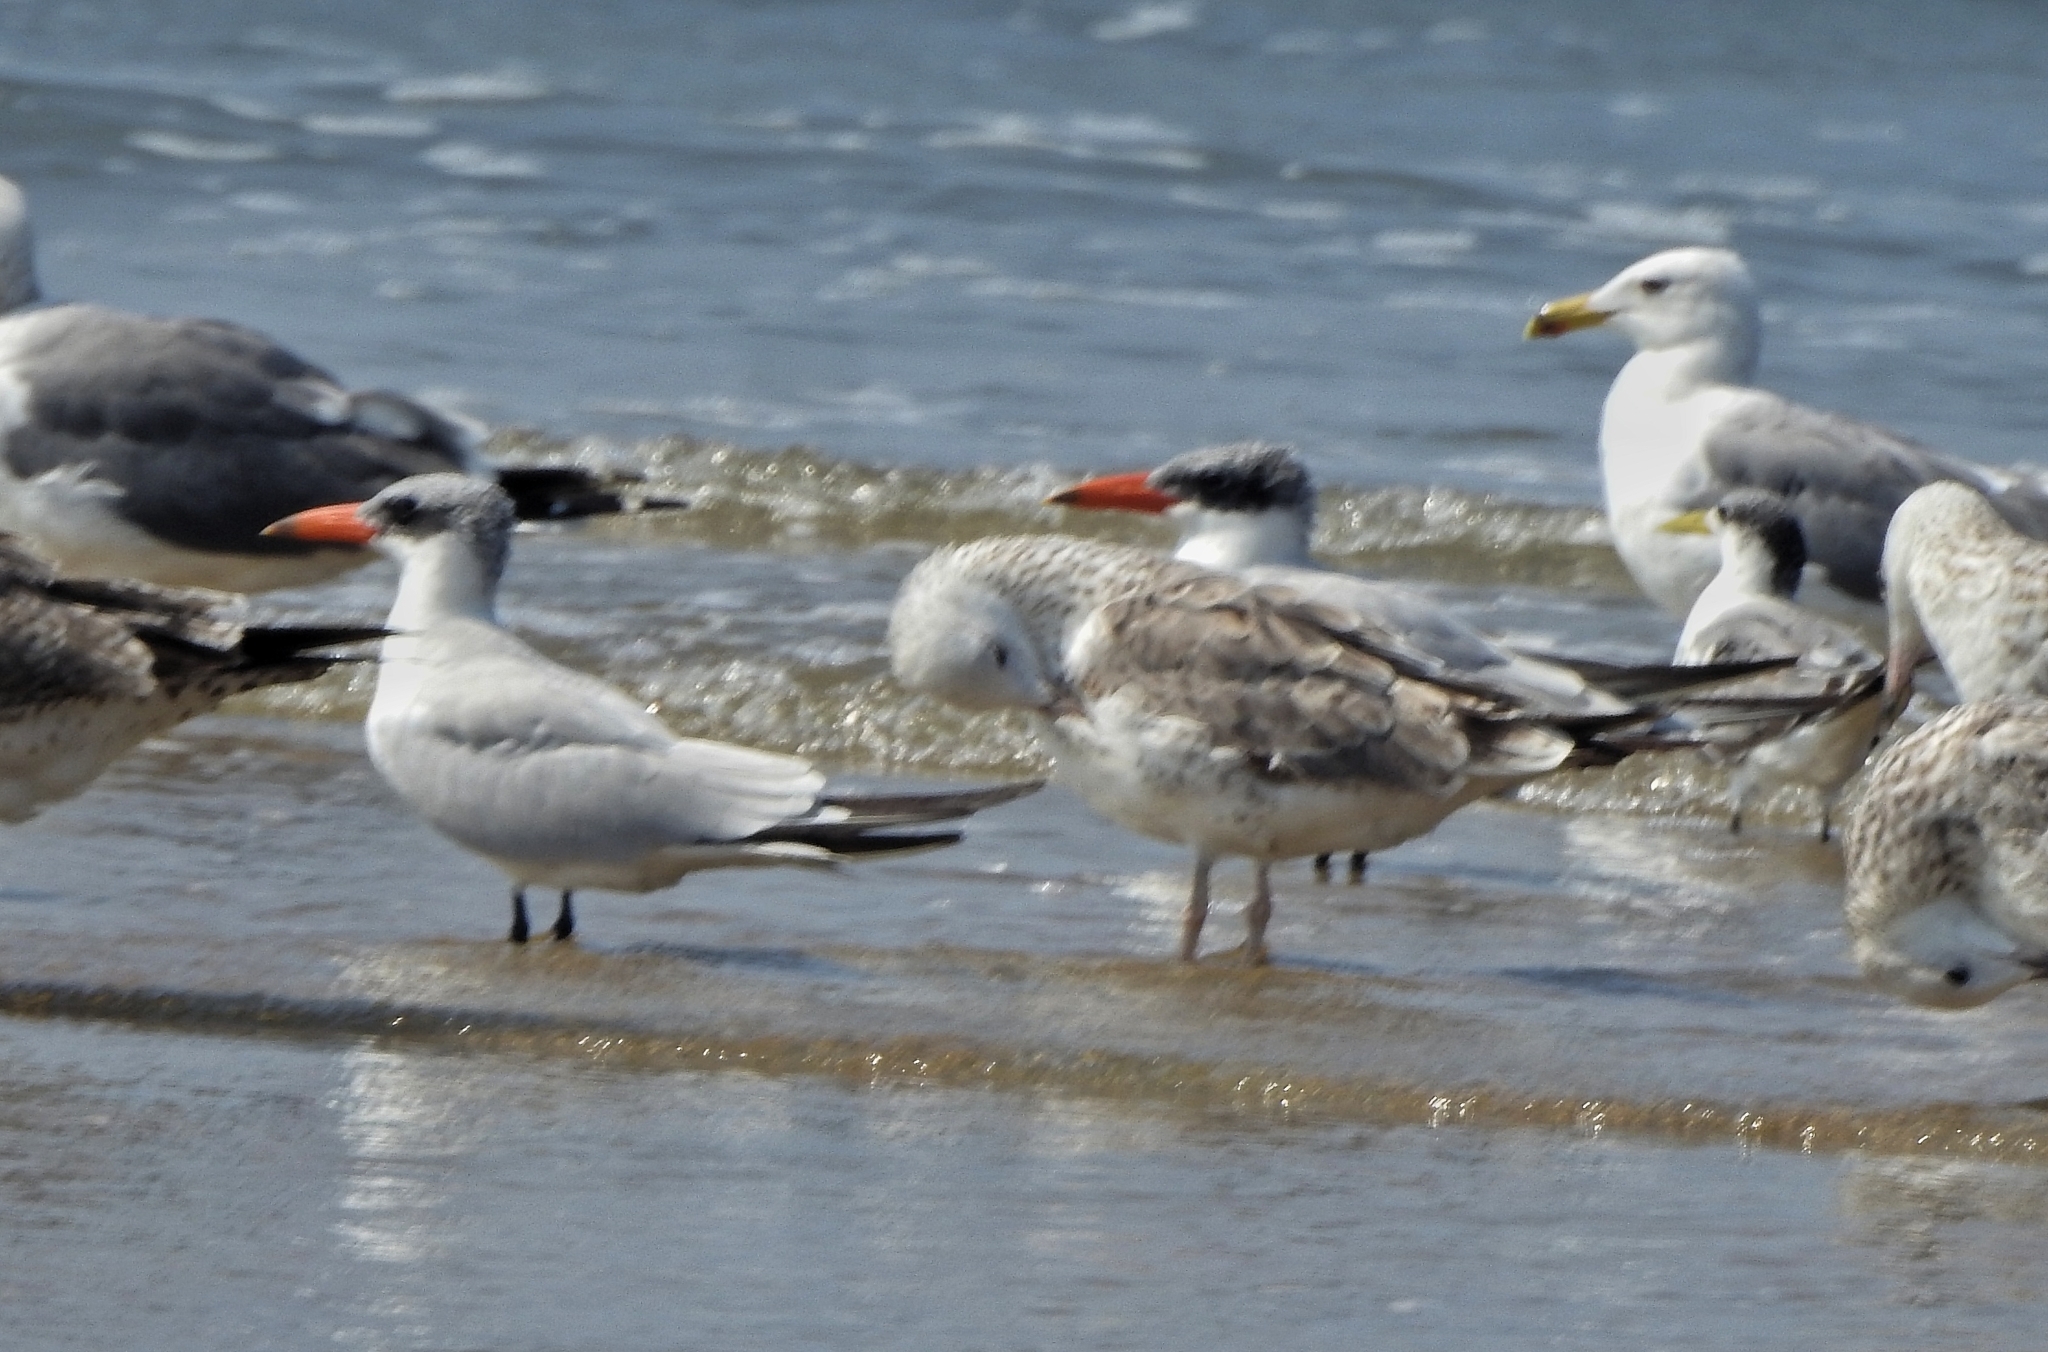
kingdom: Animalia
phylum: Chordata
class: Aves
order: Charadriiformes
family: Laridae
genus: Hydroprogne
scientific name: Hydroprogne caspia
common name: Caspian tern
